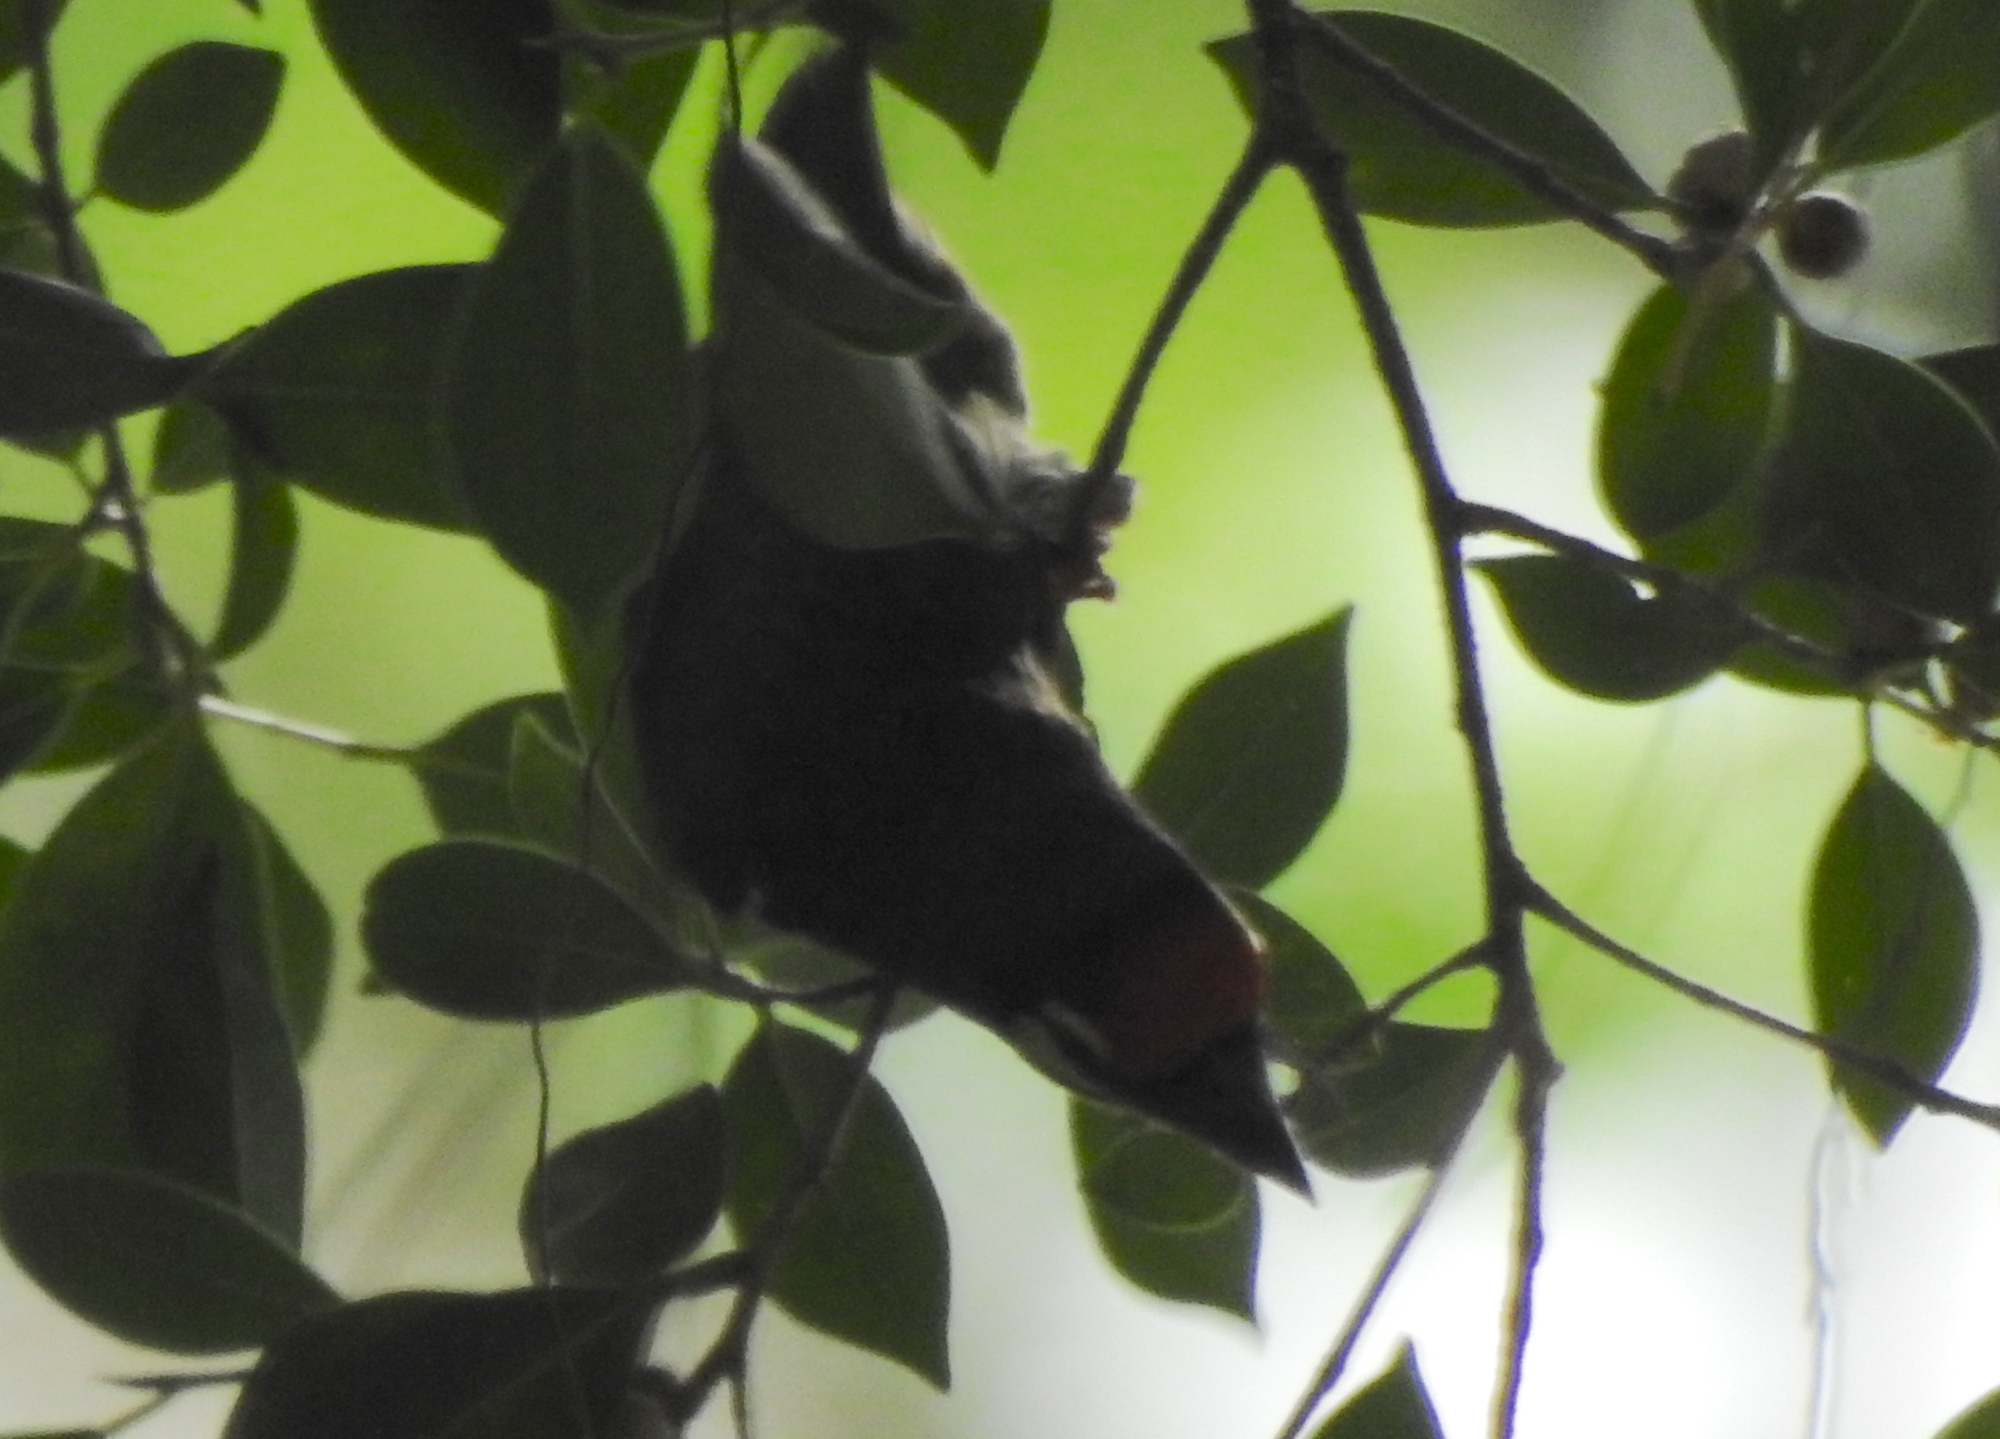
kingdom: Animalia
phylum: Chordata
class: Aves
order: Piciformes
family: Megalaimidae
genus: Psilopogon
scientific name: Psilopogon haemacephalus
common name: Coppersmith barbet
